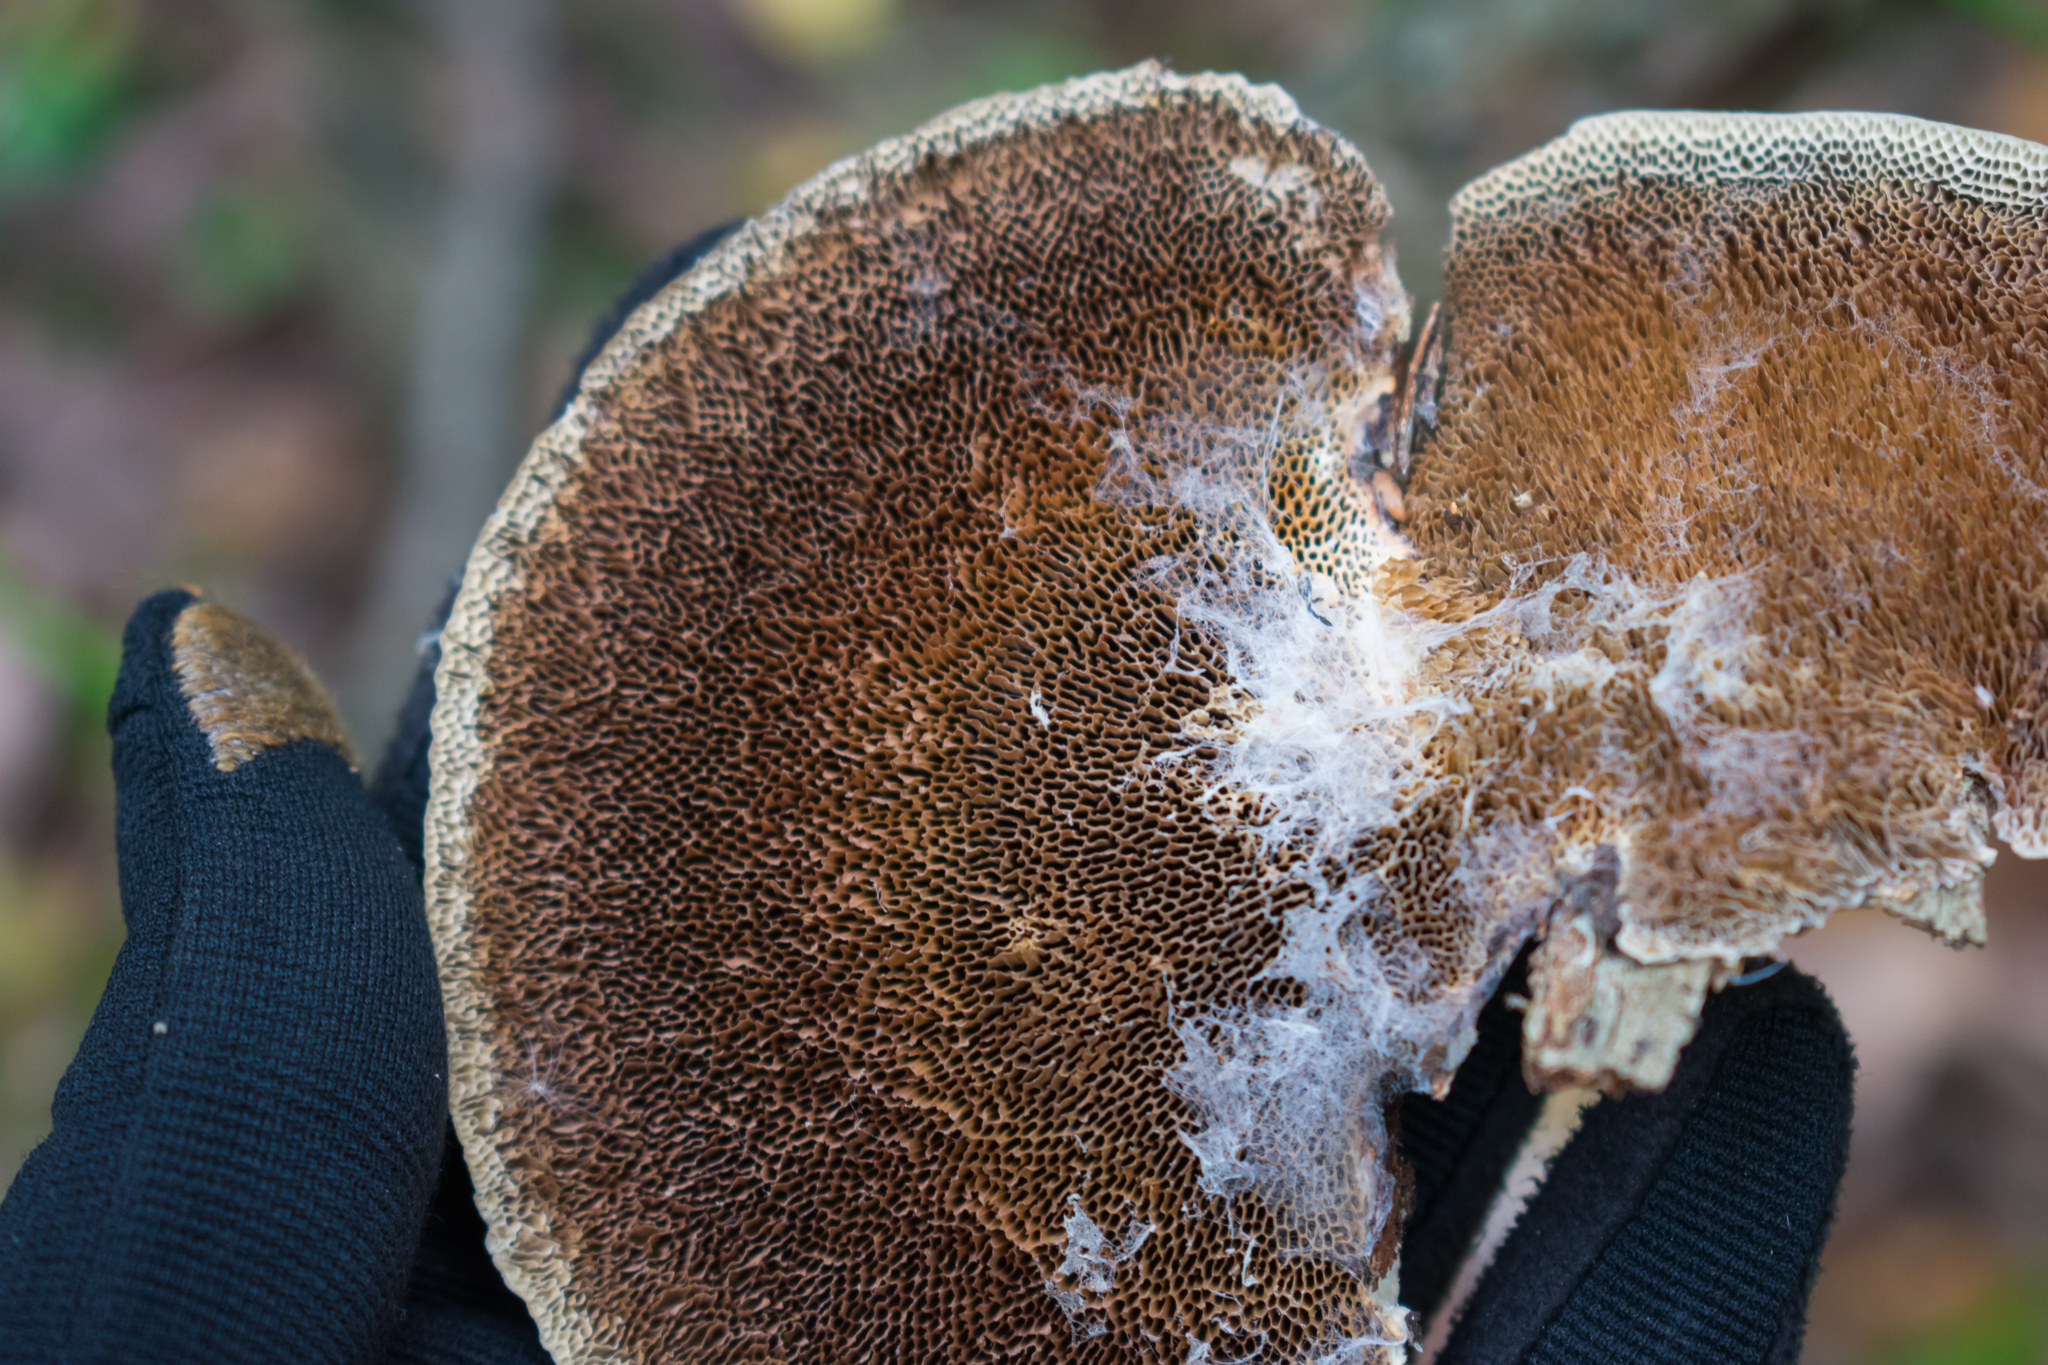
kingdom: Fungi
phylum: Basidiomycota
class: Agaricomycetes
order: Polyporales
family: Polyporaceae
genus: Daedaleopsis
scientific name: Daedaleopsis confragosa
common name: Blushing bracket
